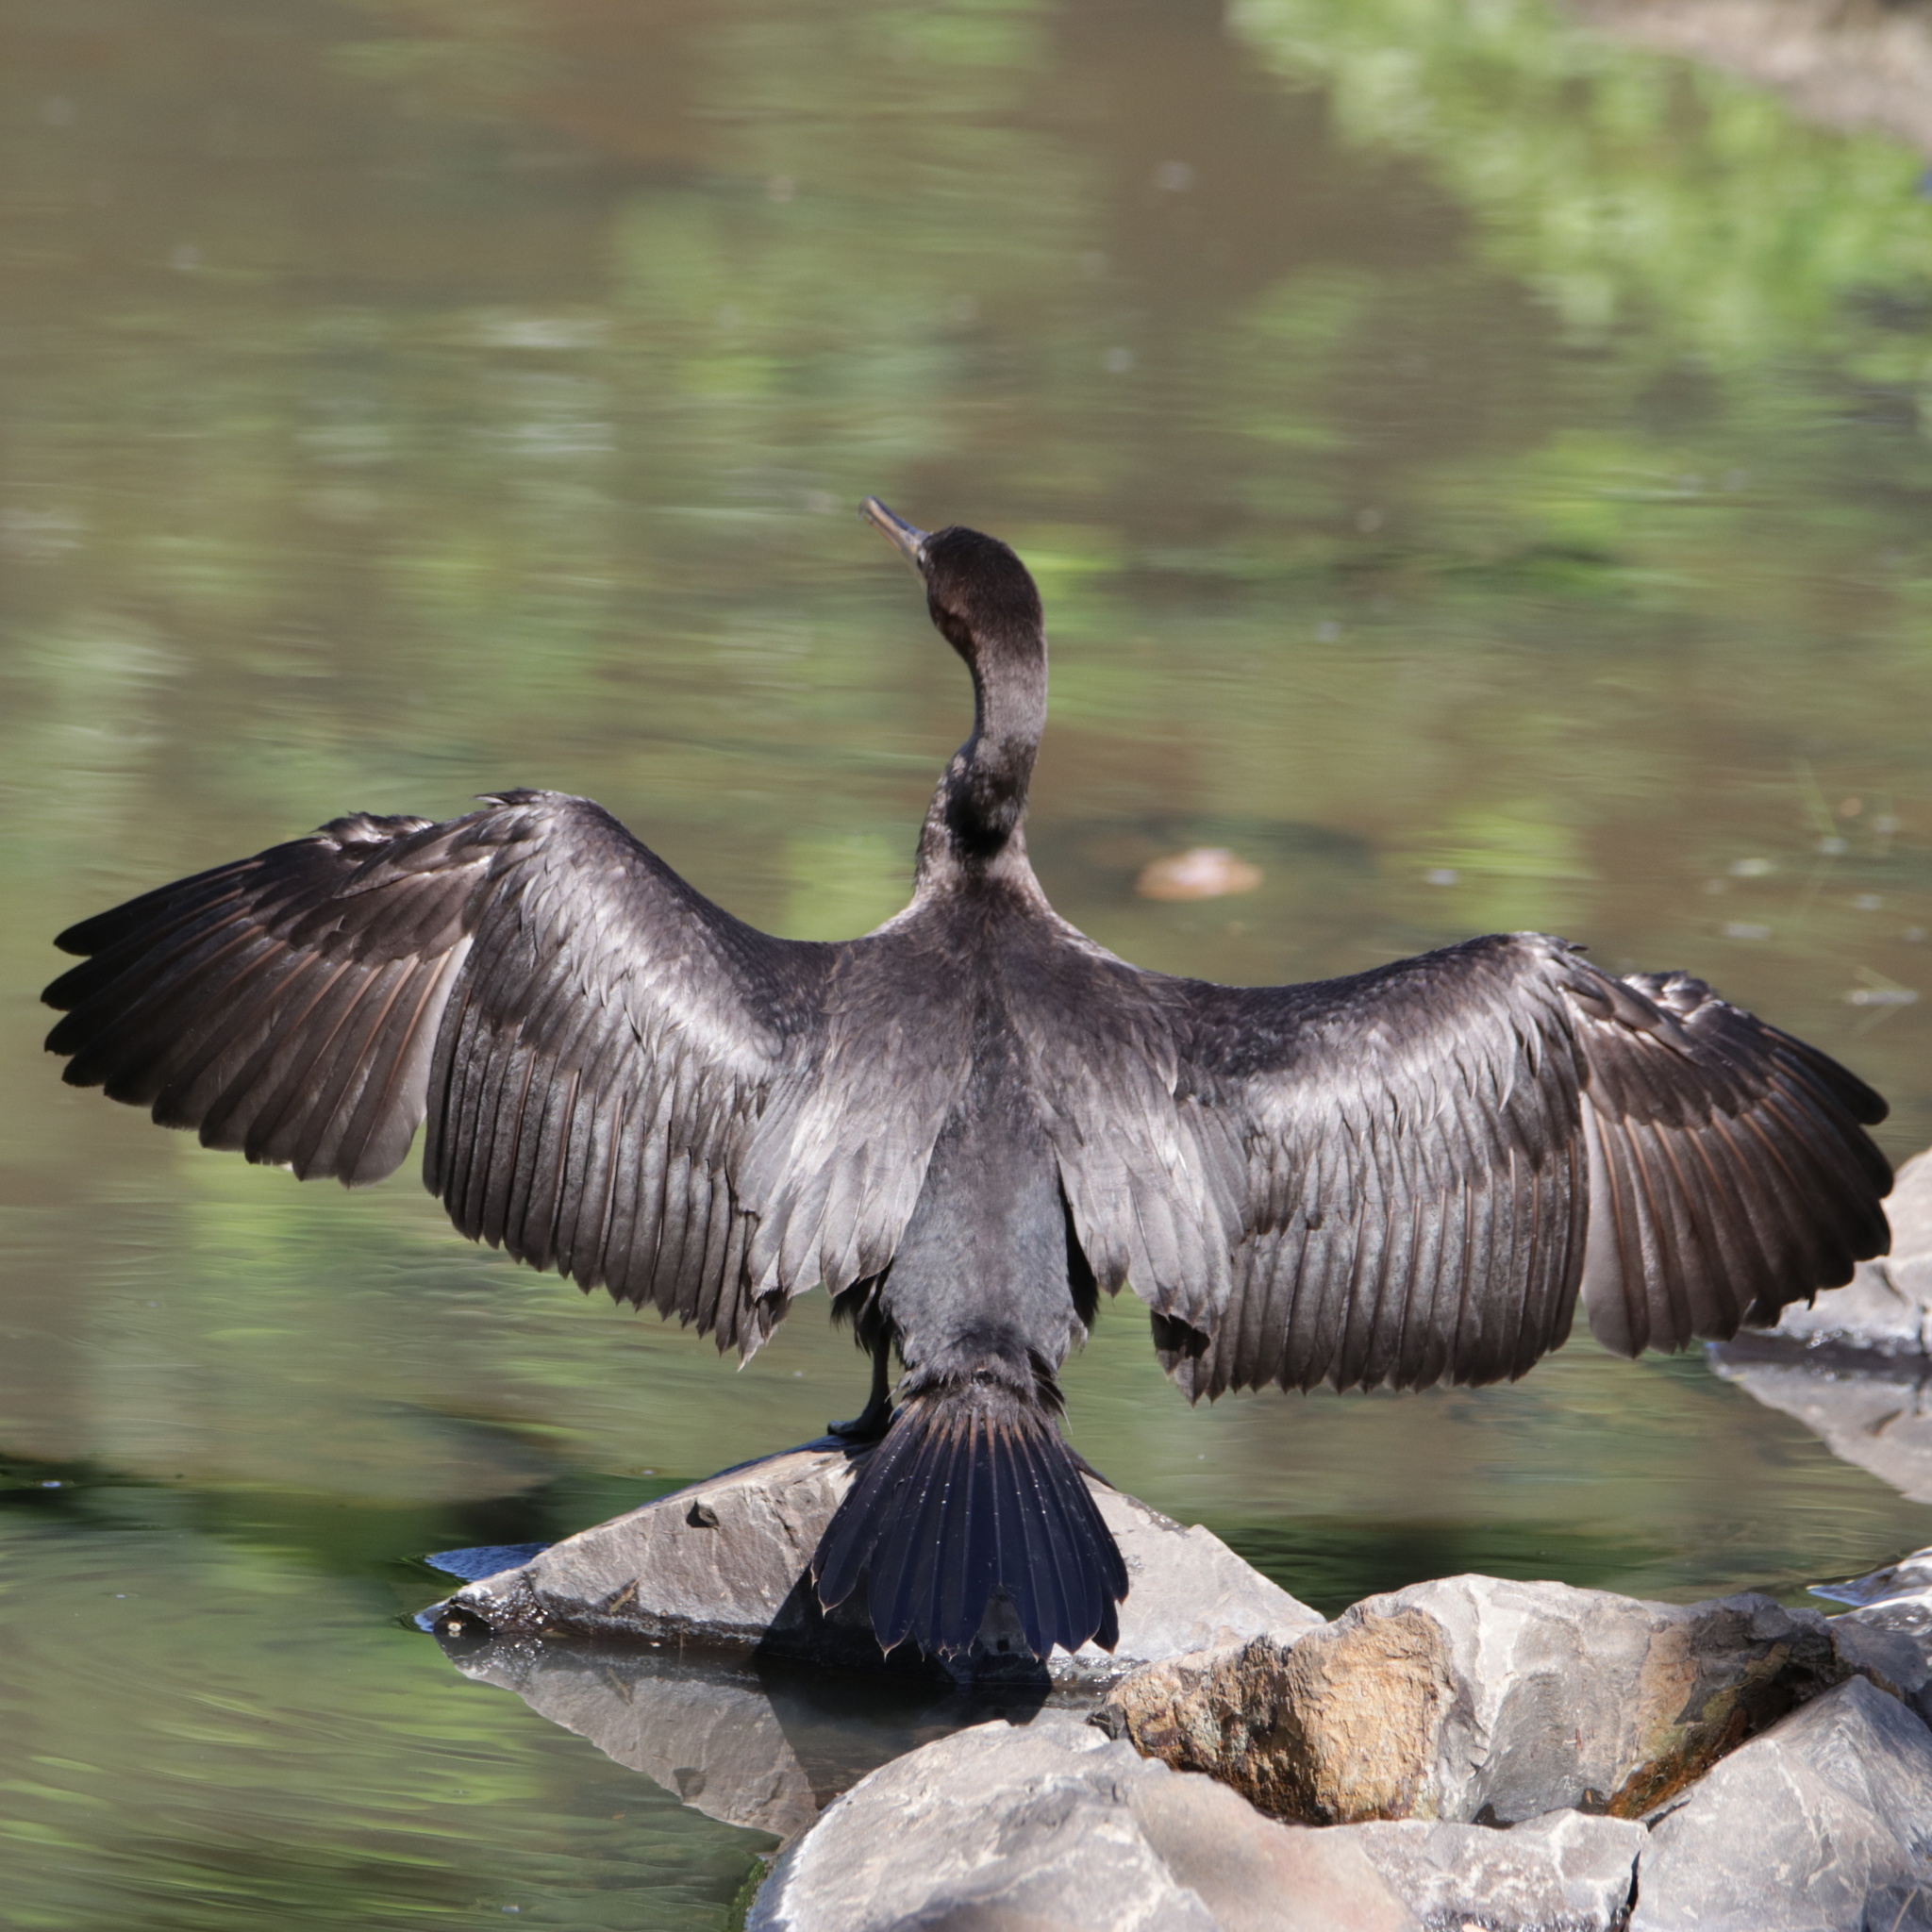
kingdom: Animalia
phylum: Chordata
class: Aves
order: Suliformes
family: Phalacrocoracidae
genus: Phalacrocorax
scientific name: Phalacrocorax brasilianus
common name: Neotropic cormorant
